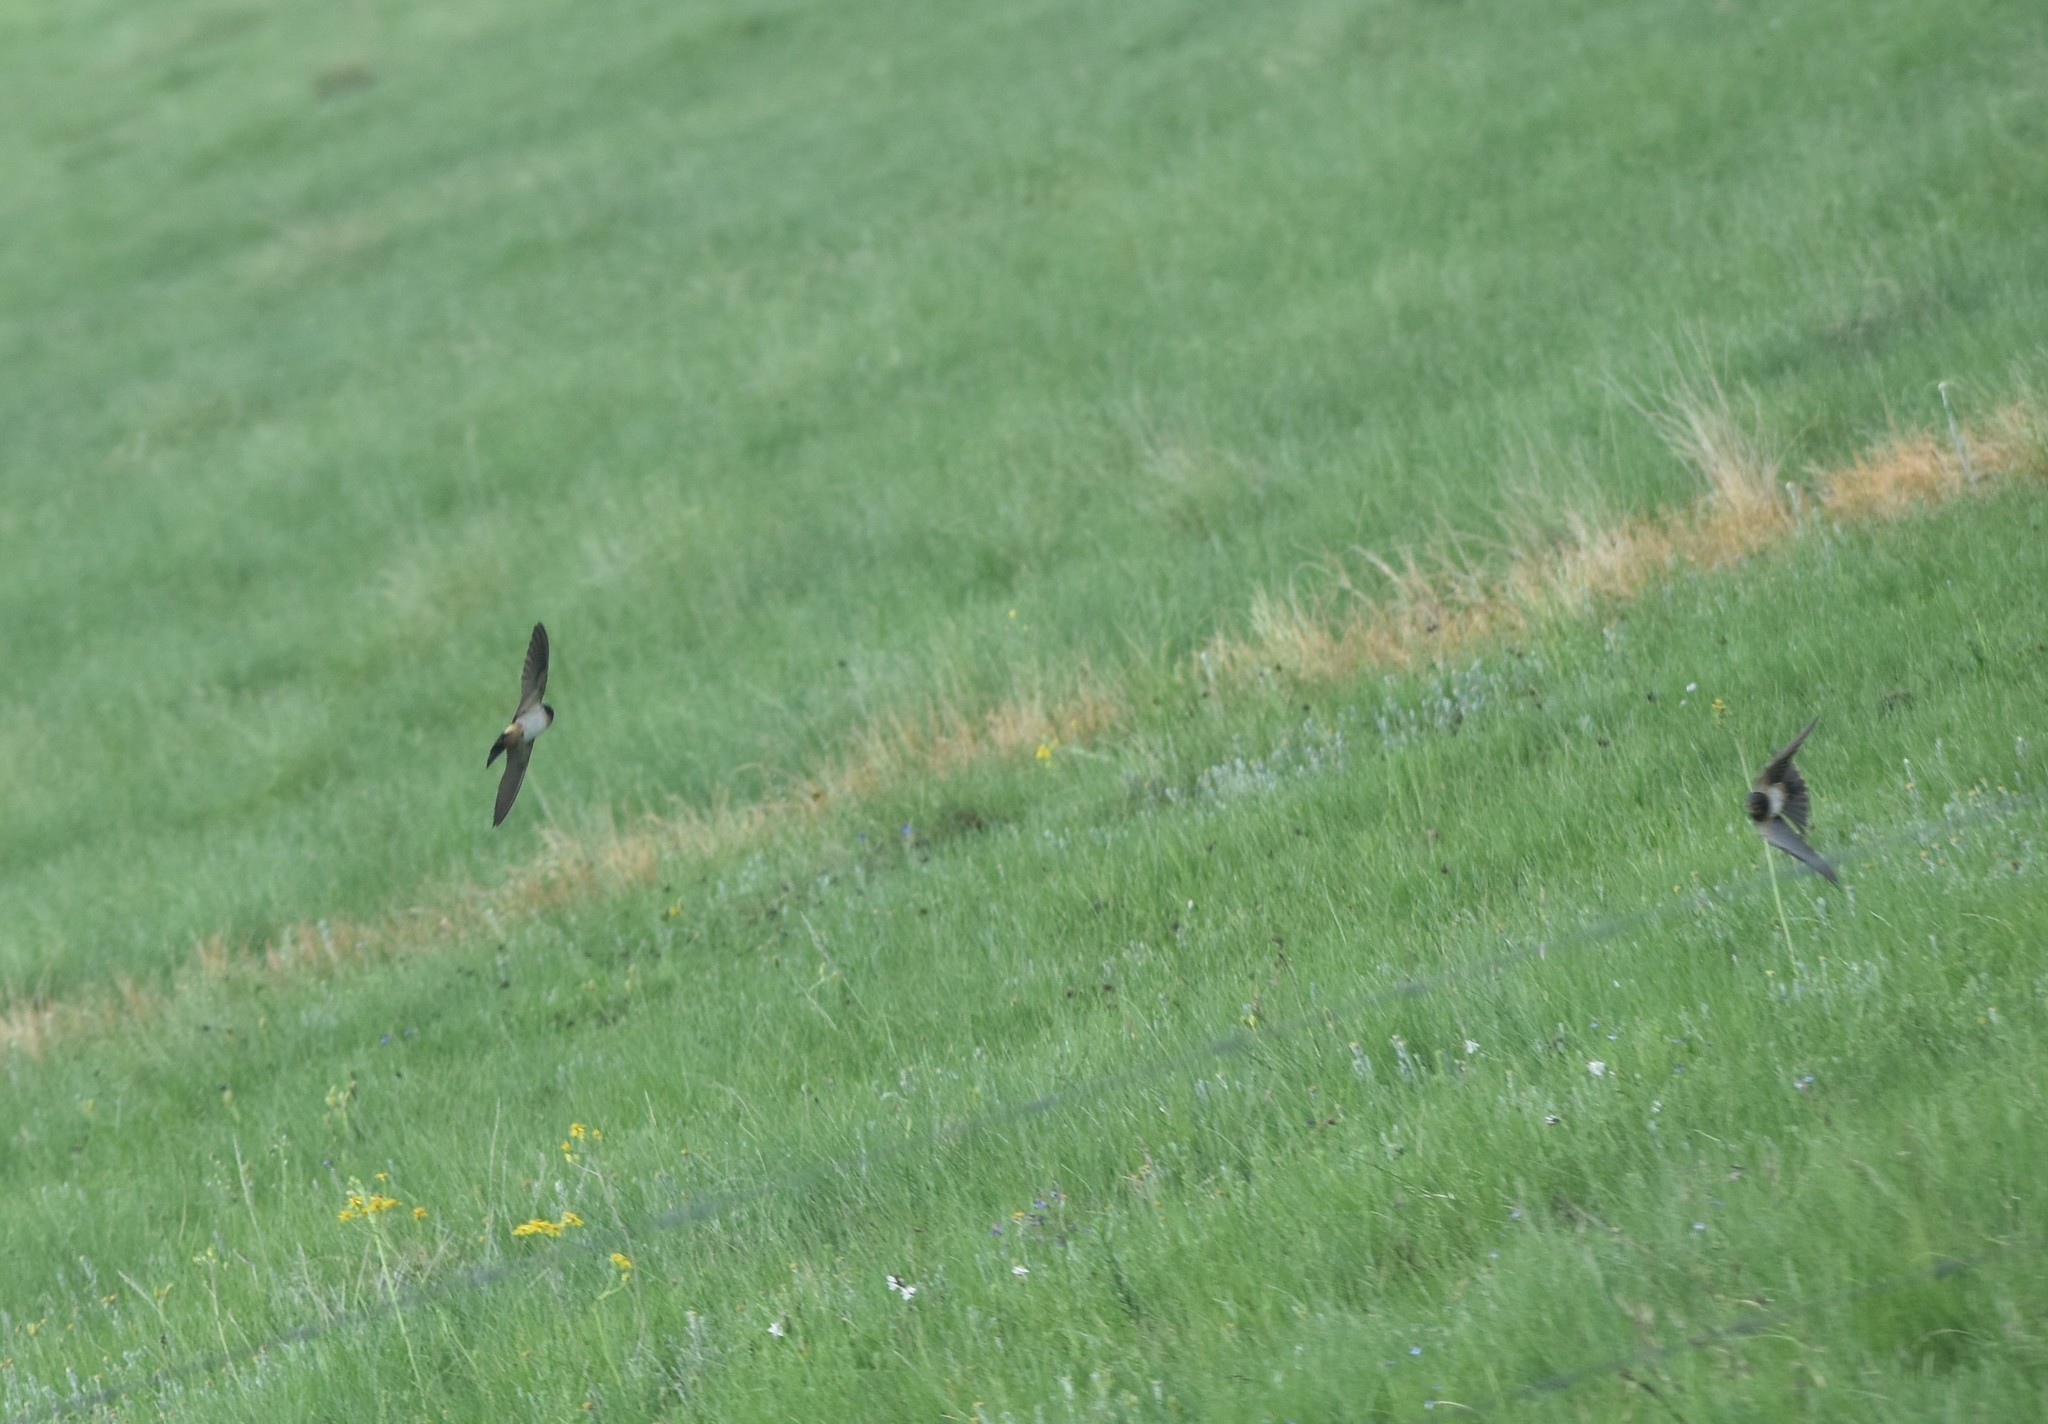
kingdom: Animalia
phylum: Chordata
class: Aves
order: Passeriformes
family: Hirundinidae
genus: Petrochelidon
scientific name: Petrochelidon spilodera
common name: South african swallow
